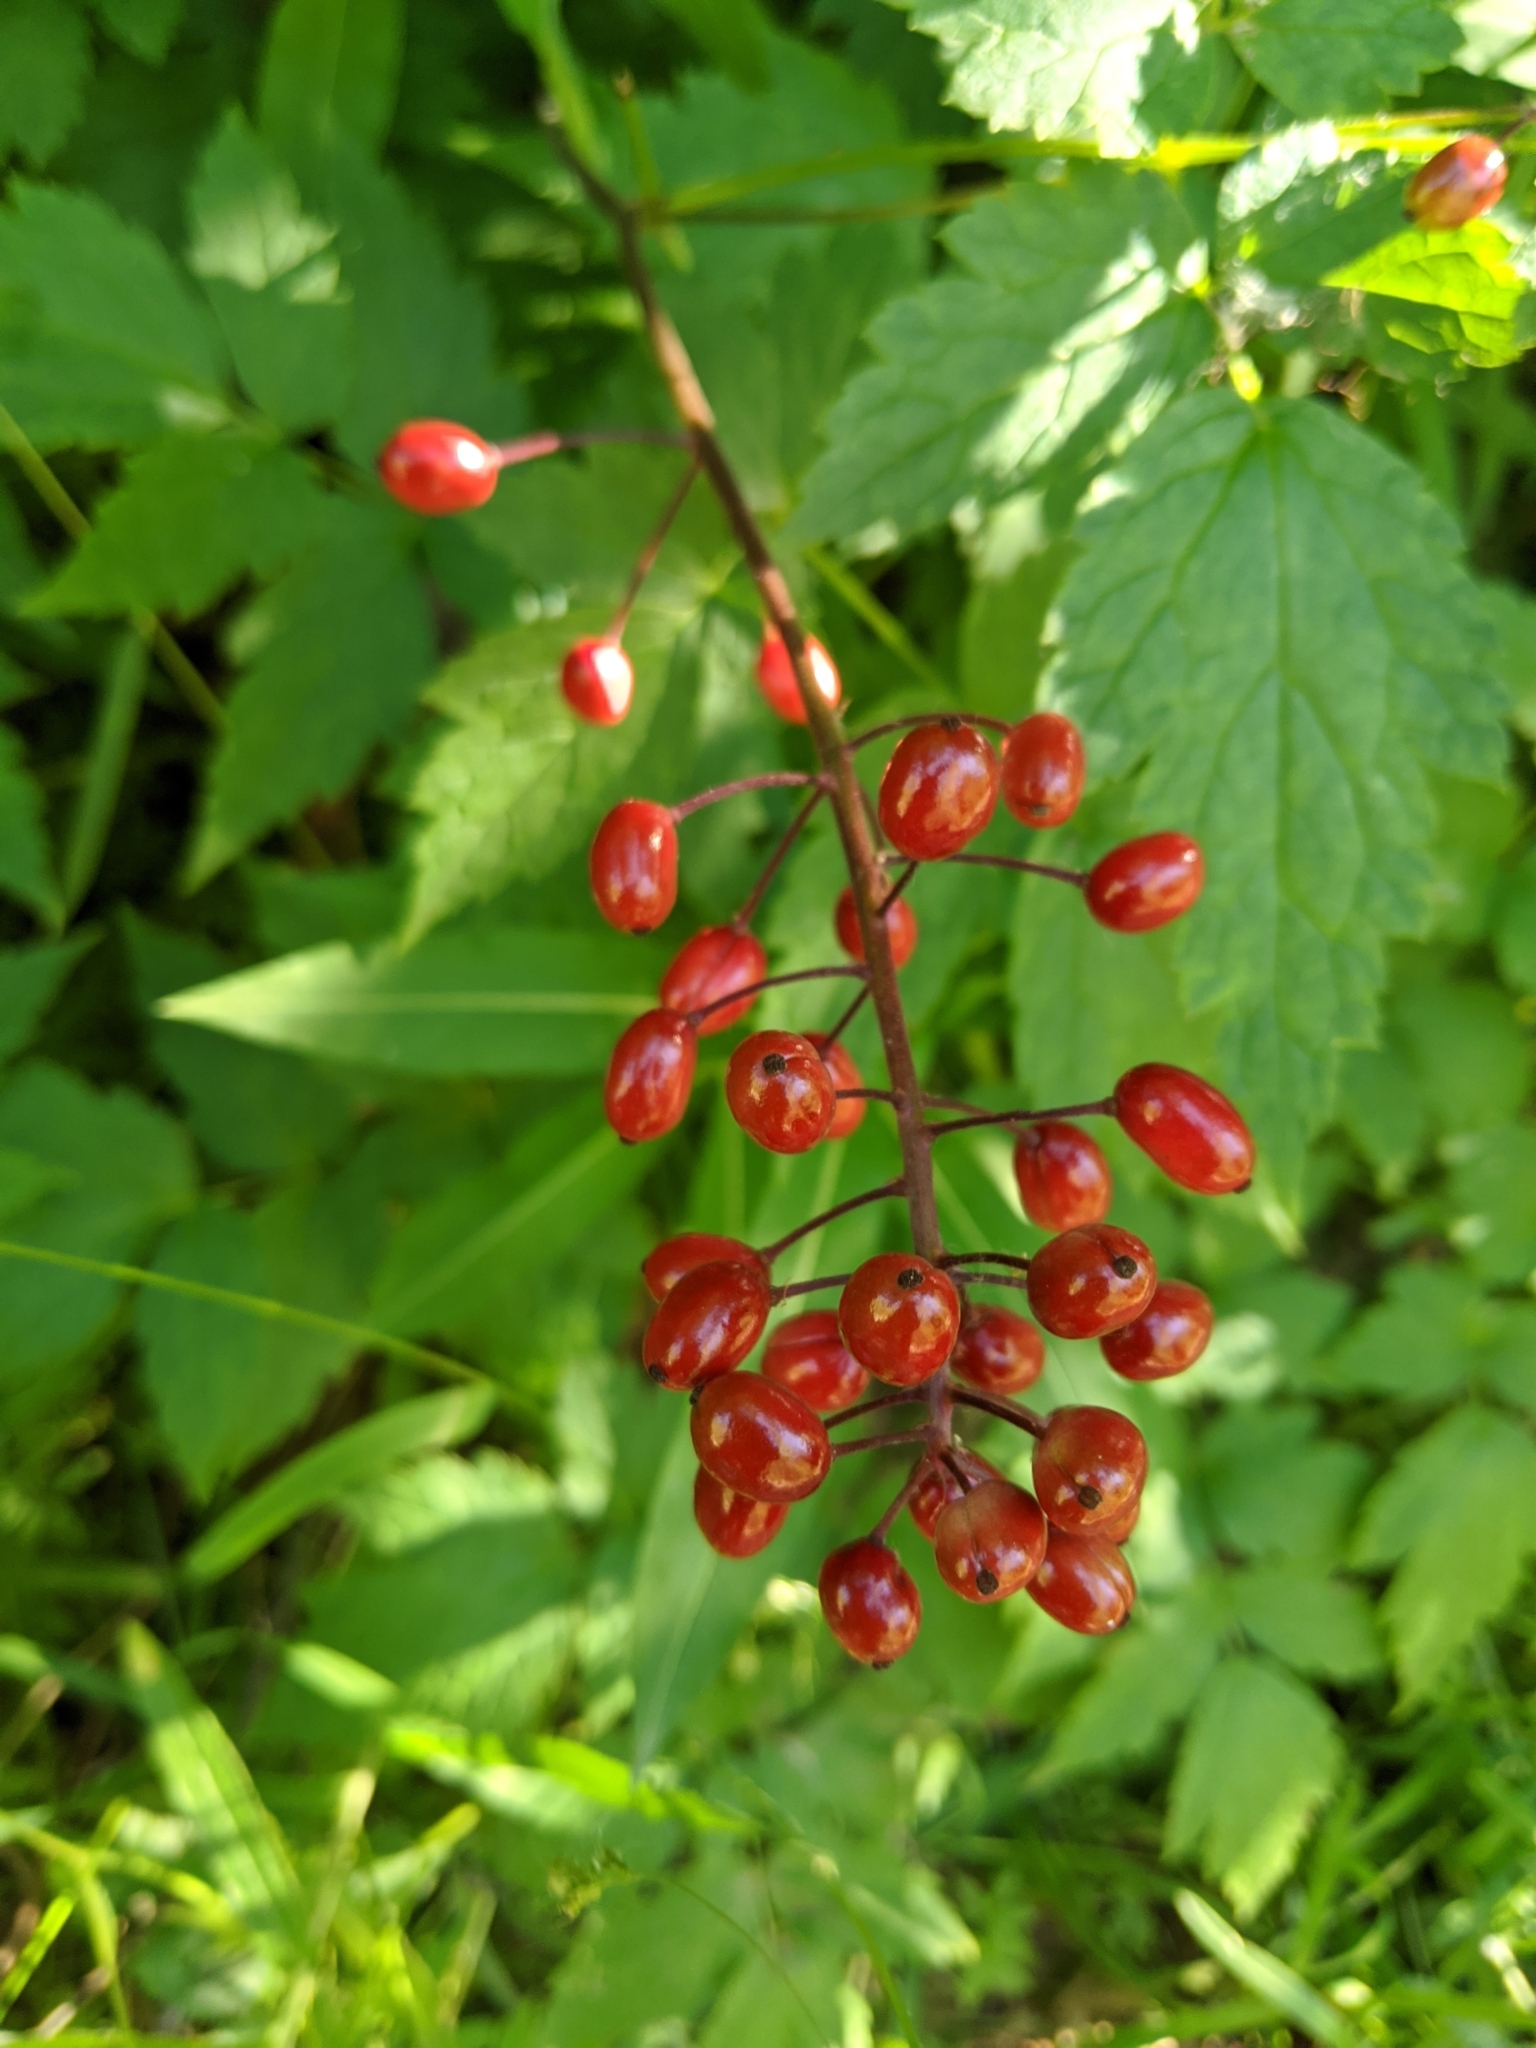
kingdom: Plantae
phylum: Tracheophyta
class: Magnoliopsida
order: Ranunculales
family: Ranunculaceae
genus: Actaea
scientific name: Actaea rubra
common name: Red baneberry
